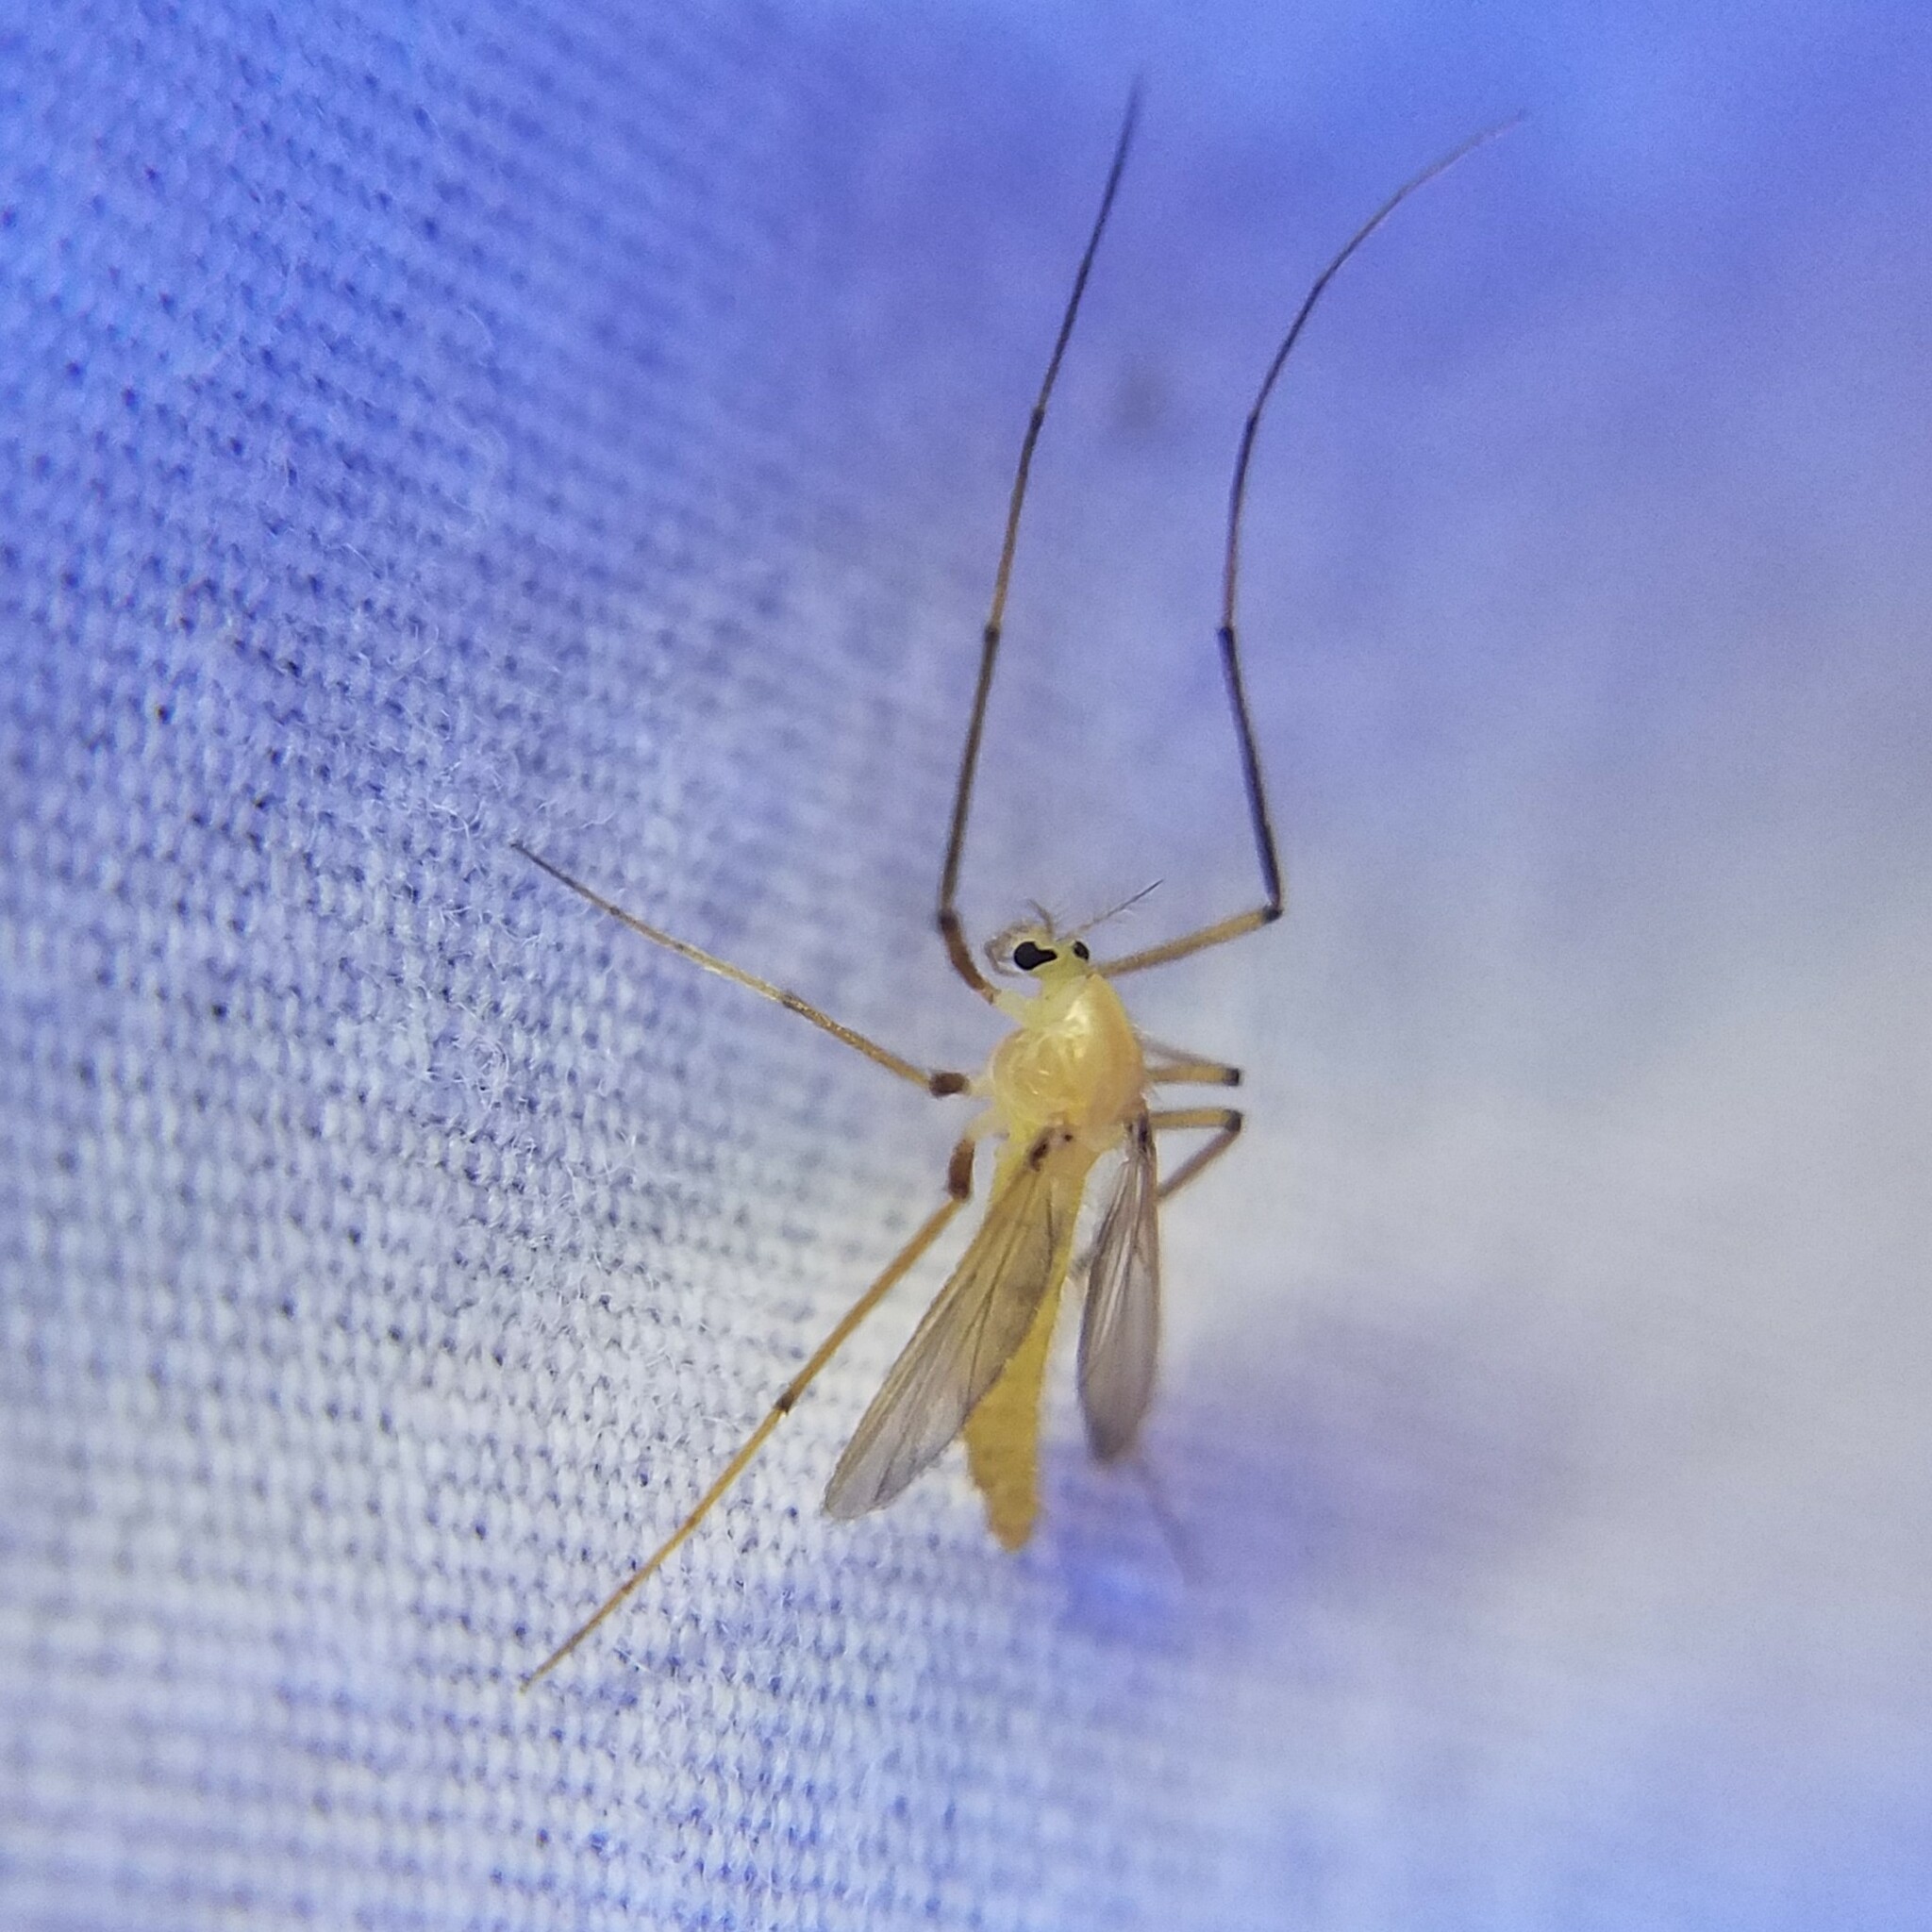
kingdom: Animalia
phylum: Arthropoda
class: Insecta
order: Diptera
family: Chironomidae
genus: Xylotopus
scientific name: Xylotopus par
